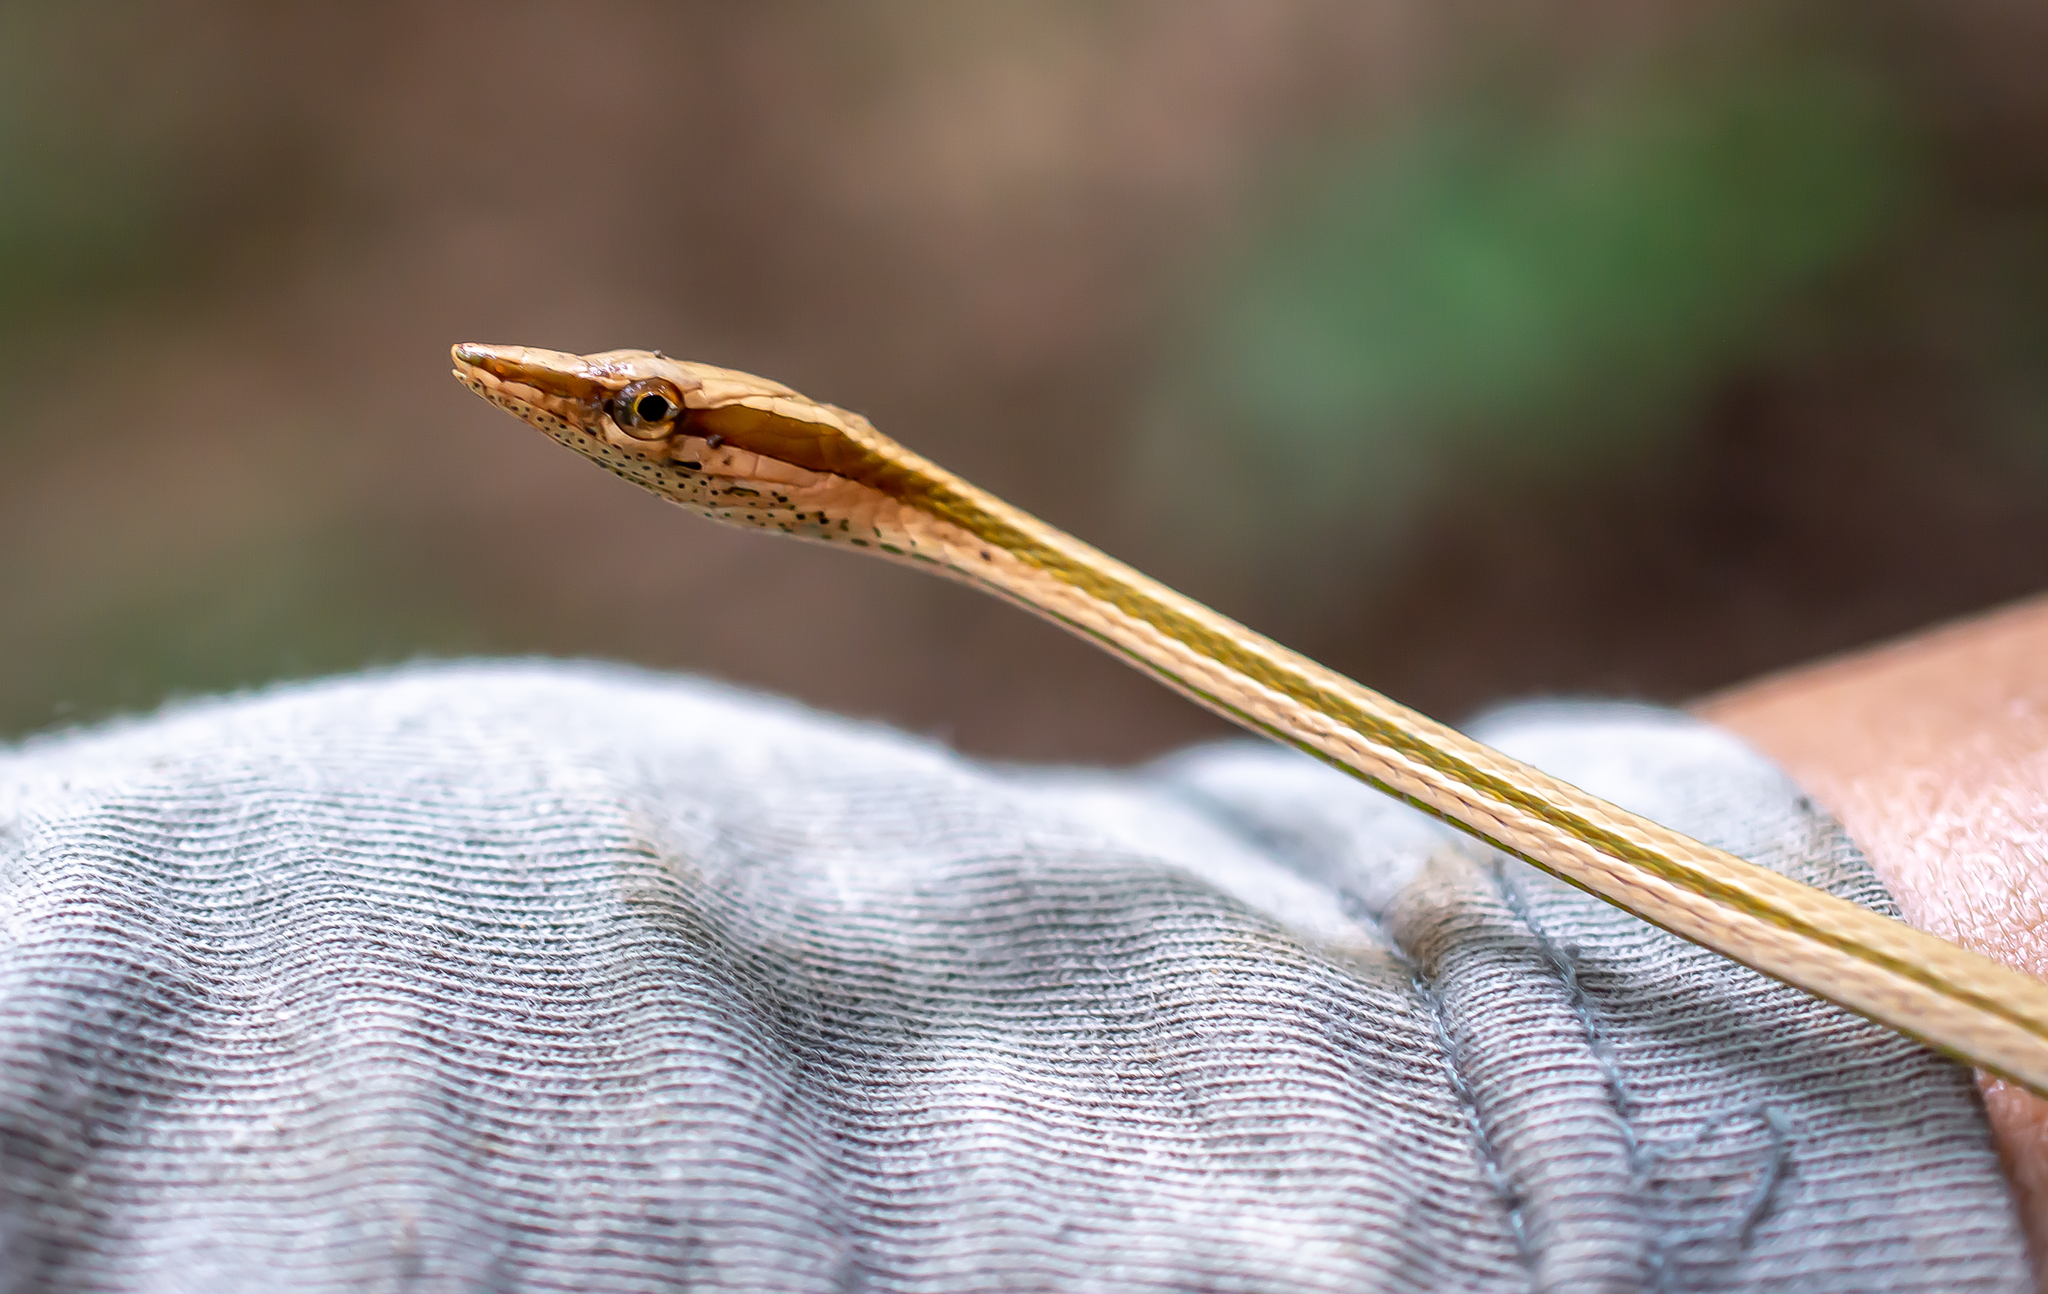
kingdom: Animalia
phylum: Chordata
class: Squamata
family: Colubridae
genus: Xenoxybelis
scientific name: Xenoxybelis argenteus
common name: Striped sharpnose snake
